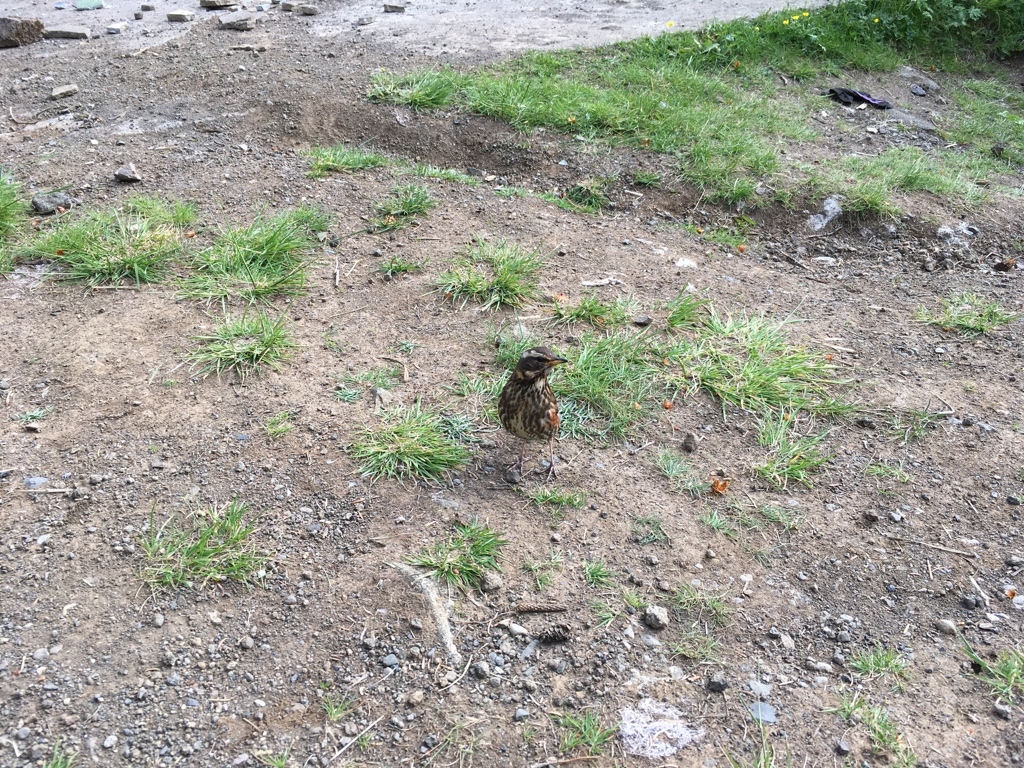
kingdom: Animalia
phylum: Chordata
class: Aves
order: Passeriformes
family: Turdidae
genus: Turdus
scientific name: Turdus iliacus
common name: Redwing
